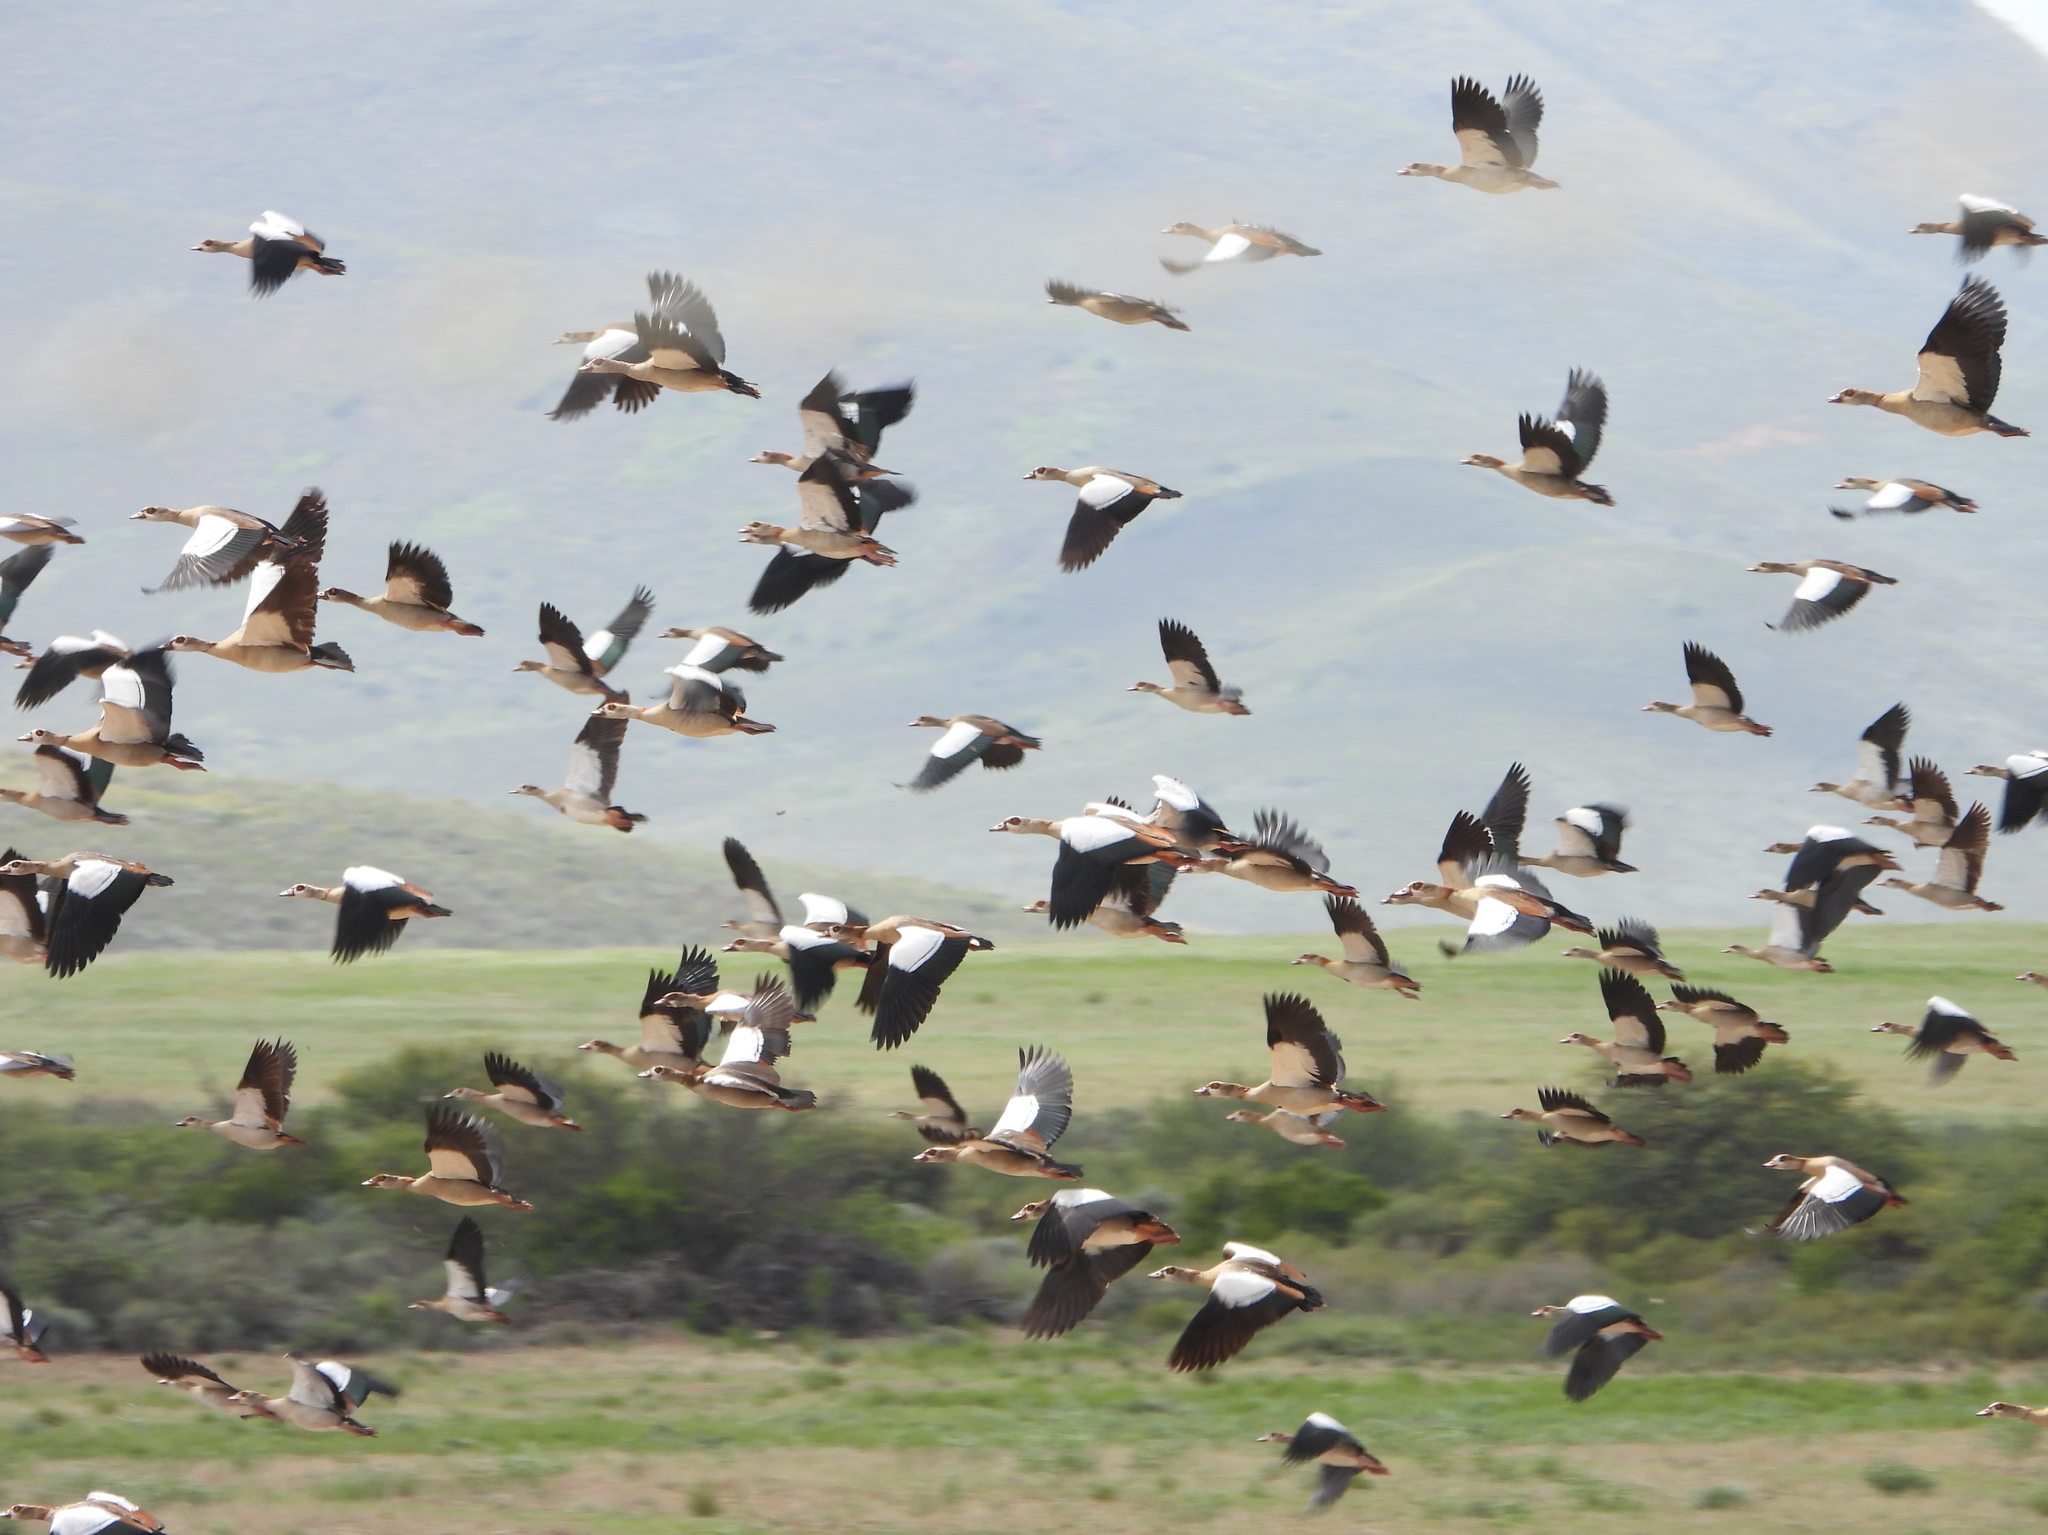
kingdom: Animalia
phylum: Chordata
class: Aves
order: Anseriformes
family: Anatidae
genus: Alopochen
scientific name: Alopochen aegyptiaca
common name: Egyptian goose
